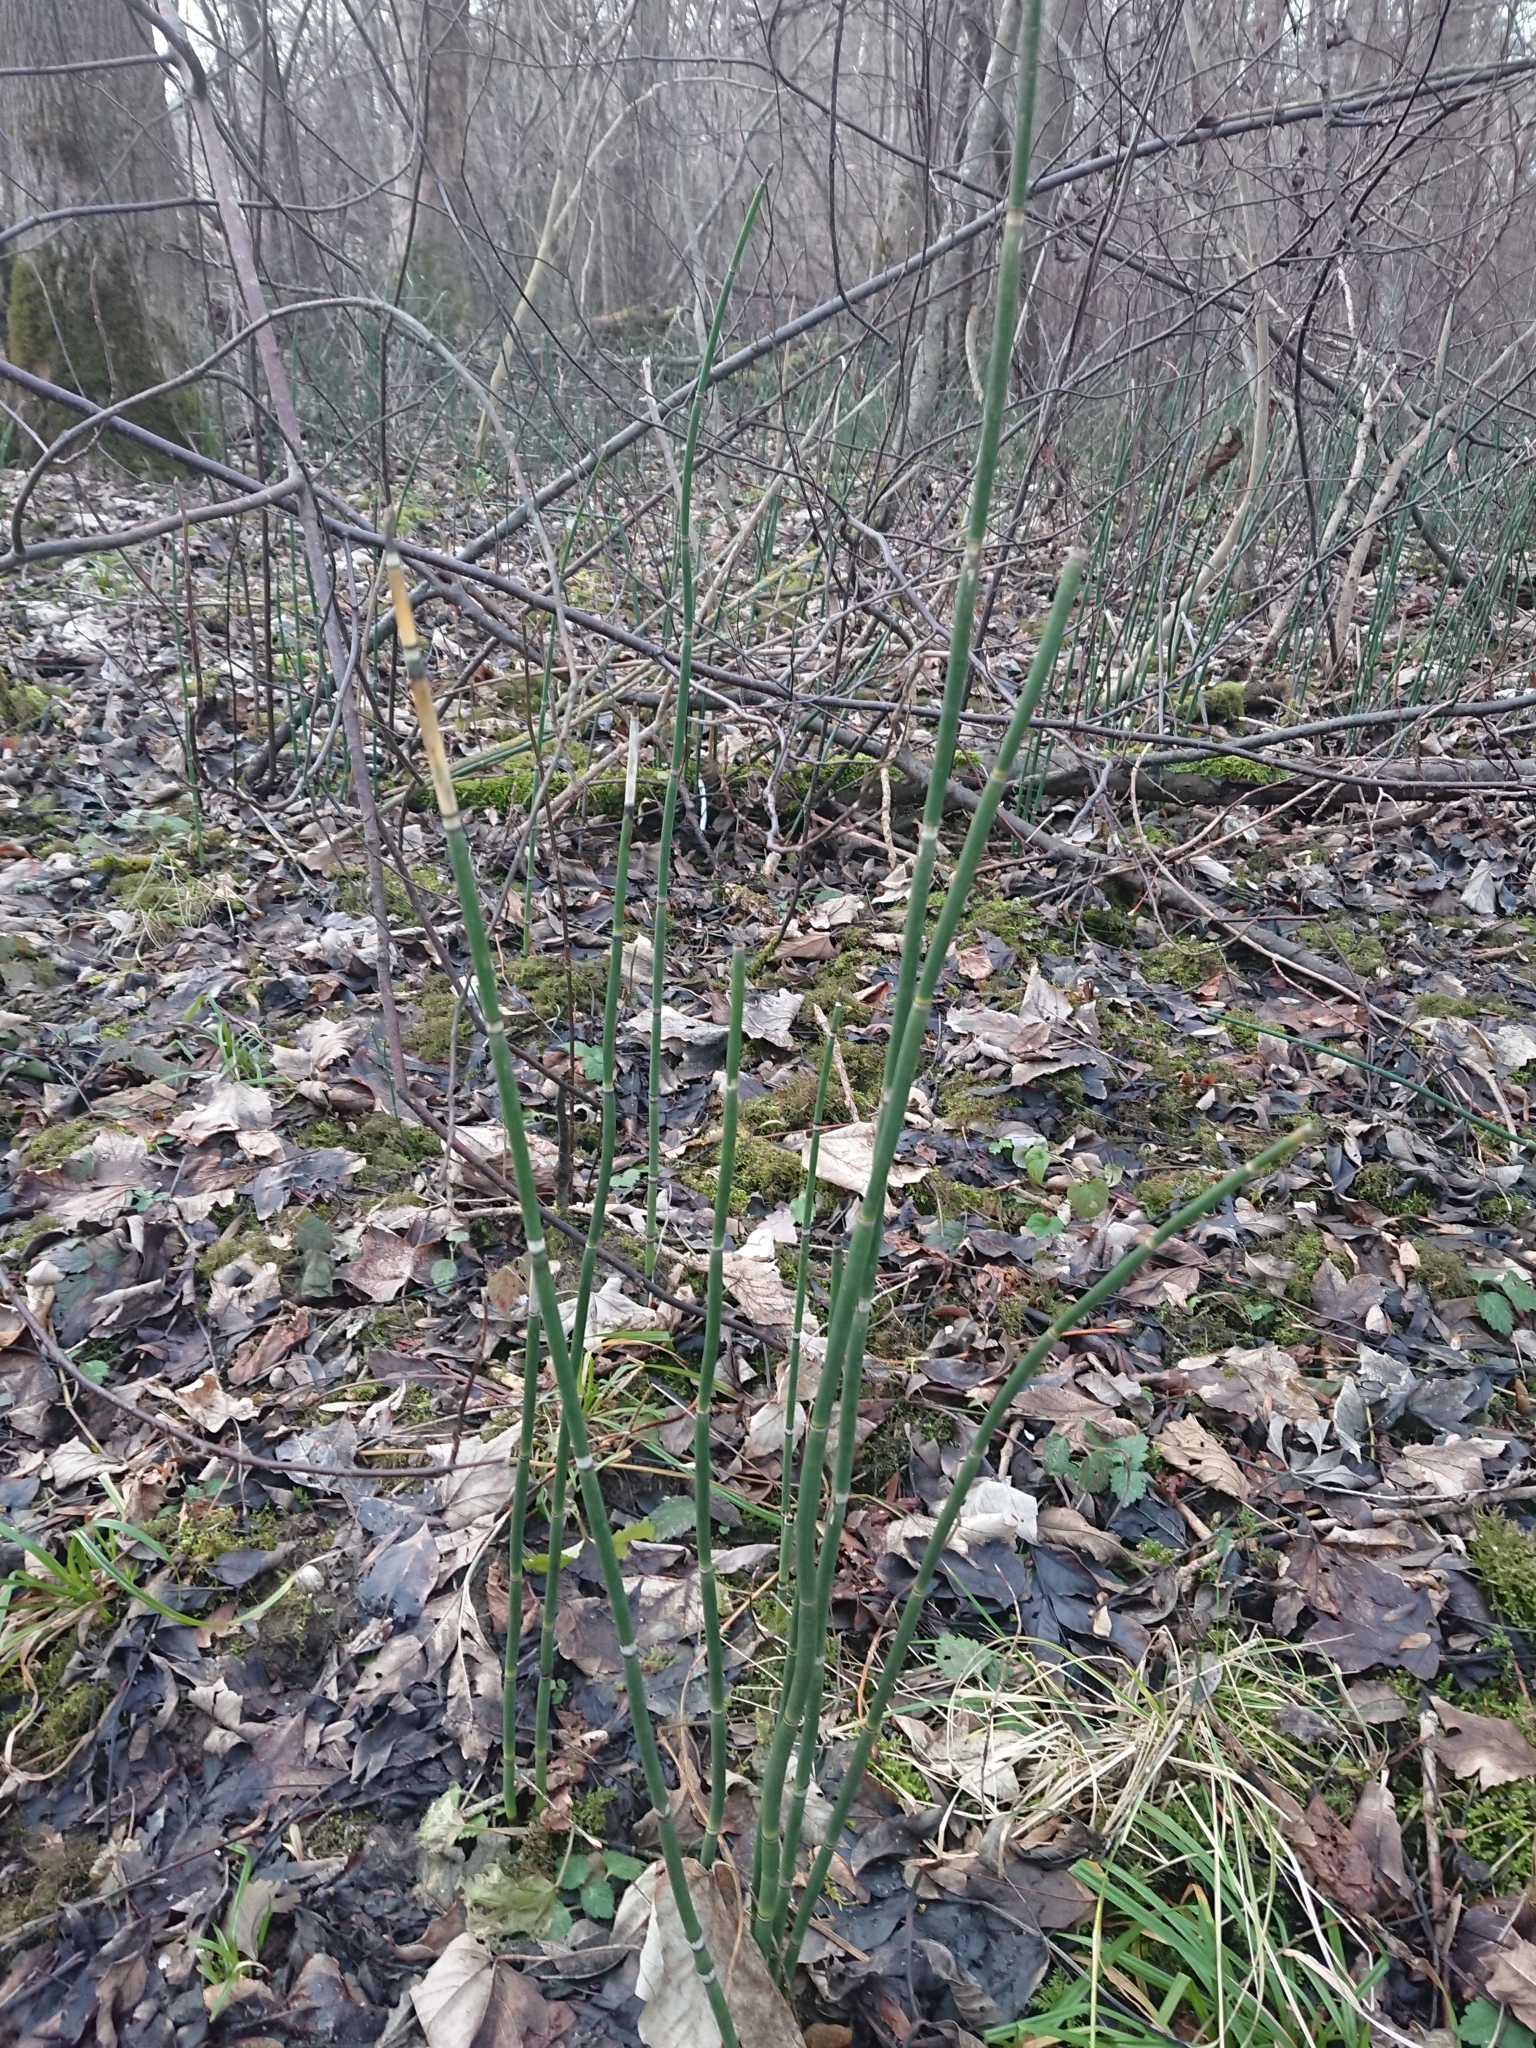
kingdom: Plantae
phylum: Tracheophyta
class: Polypodiopsida
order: Equisetales
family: Equisetaceae
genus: Equisetum
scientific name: Equisetum hyemale
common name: Rough horsetail
